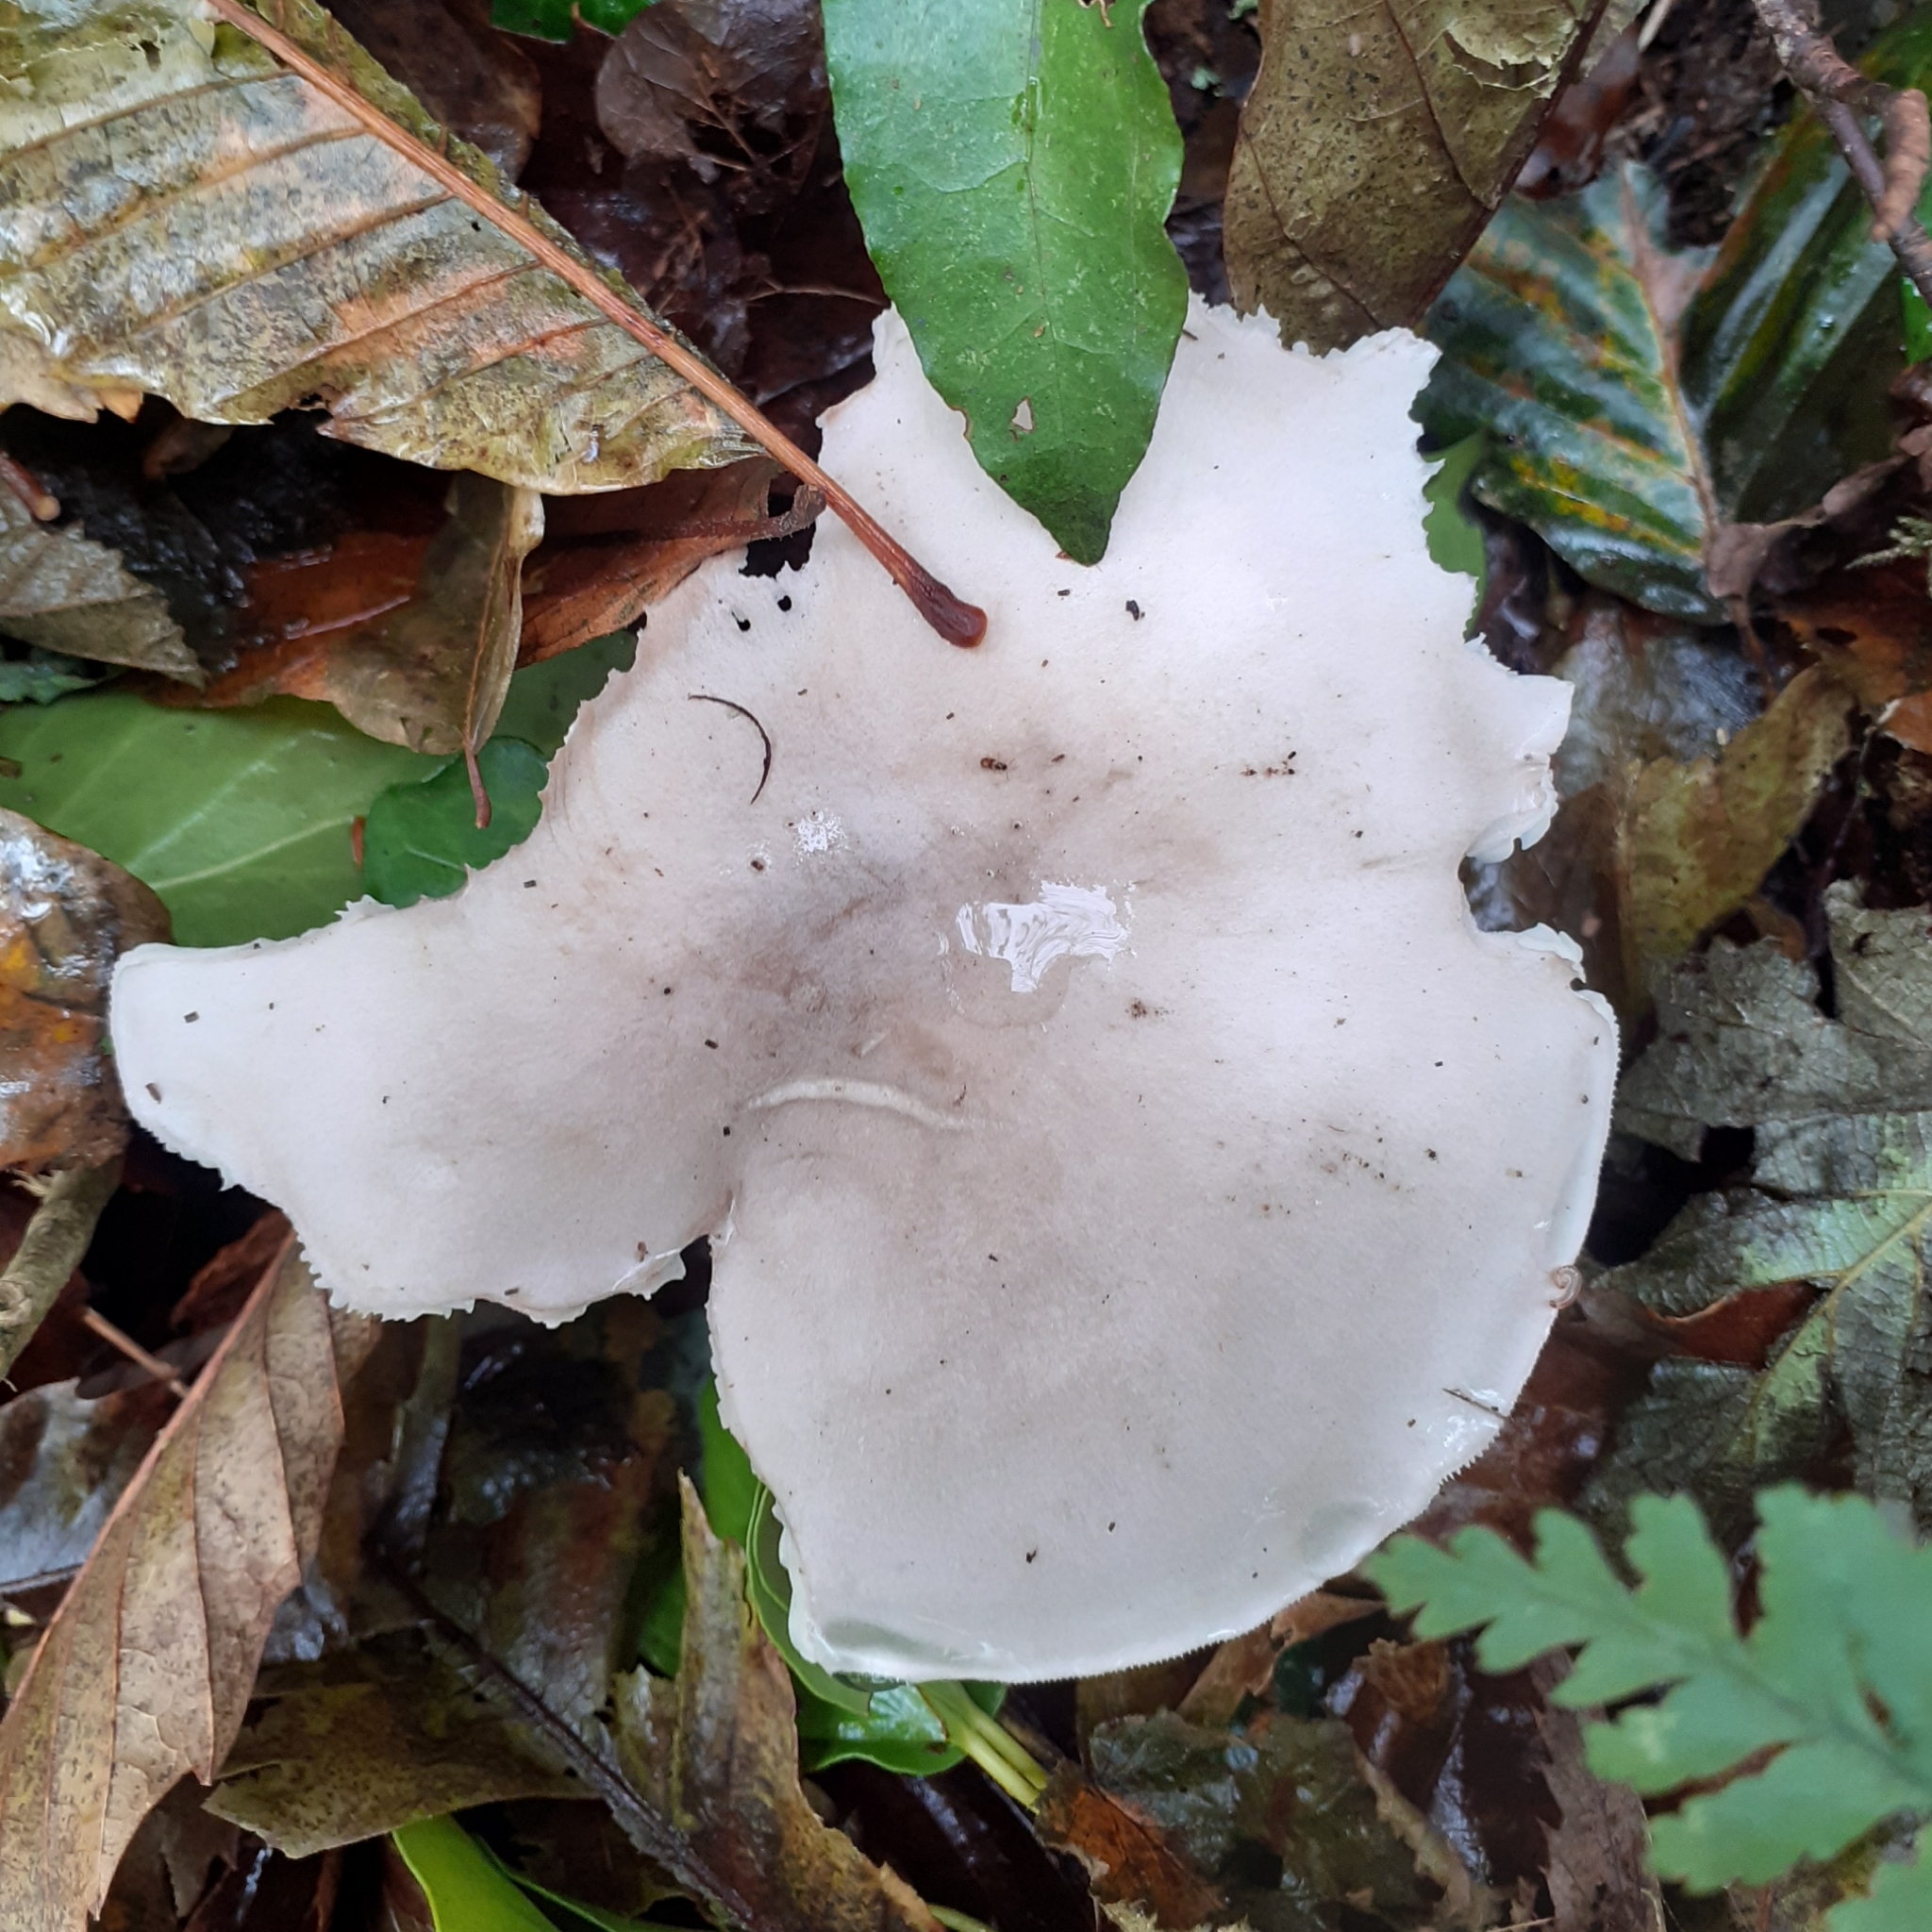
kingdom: Fungi
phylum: Basidiomycota
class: Agaricomycetes
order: Agaricales
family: Tricholomataceae
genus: Clitocybe
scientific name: Clitocybe nebularis
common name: Clouded agaric
